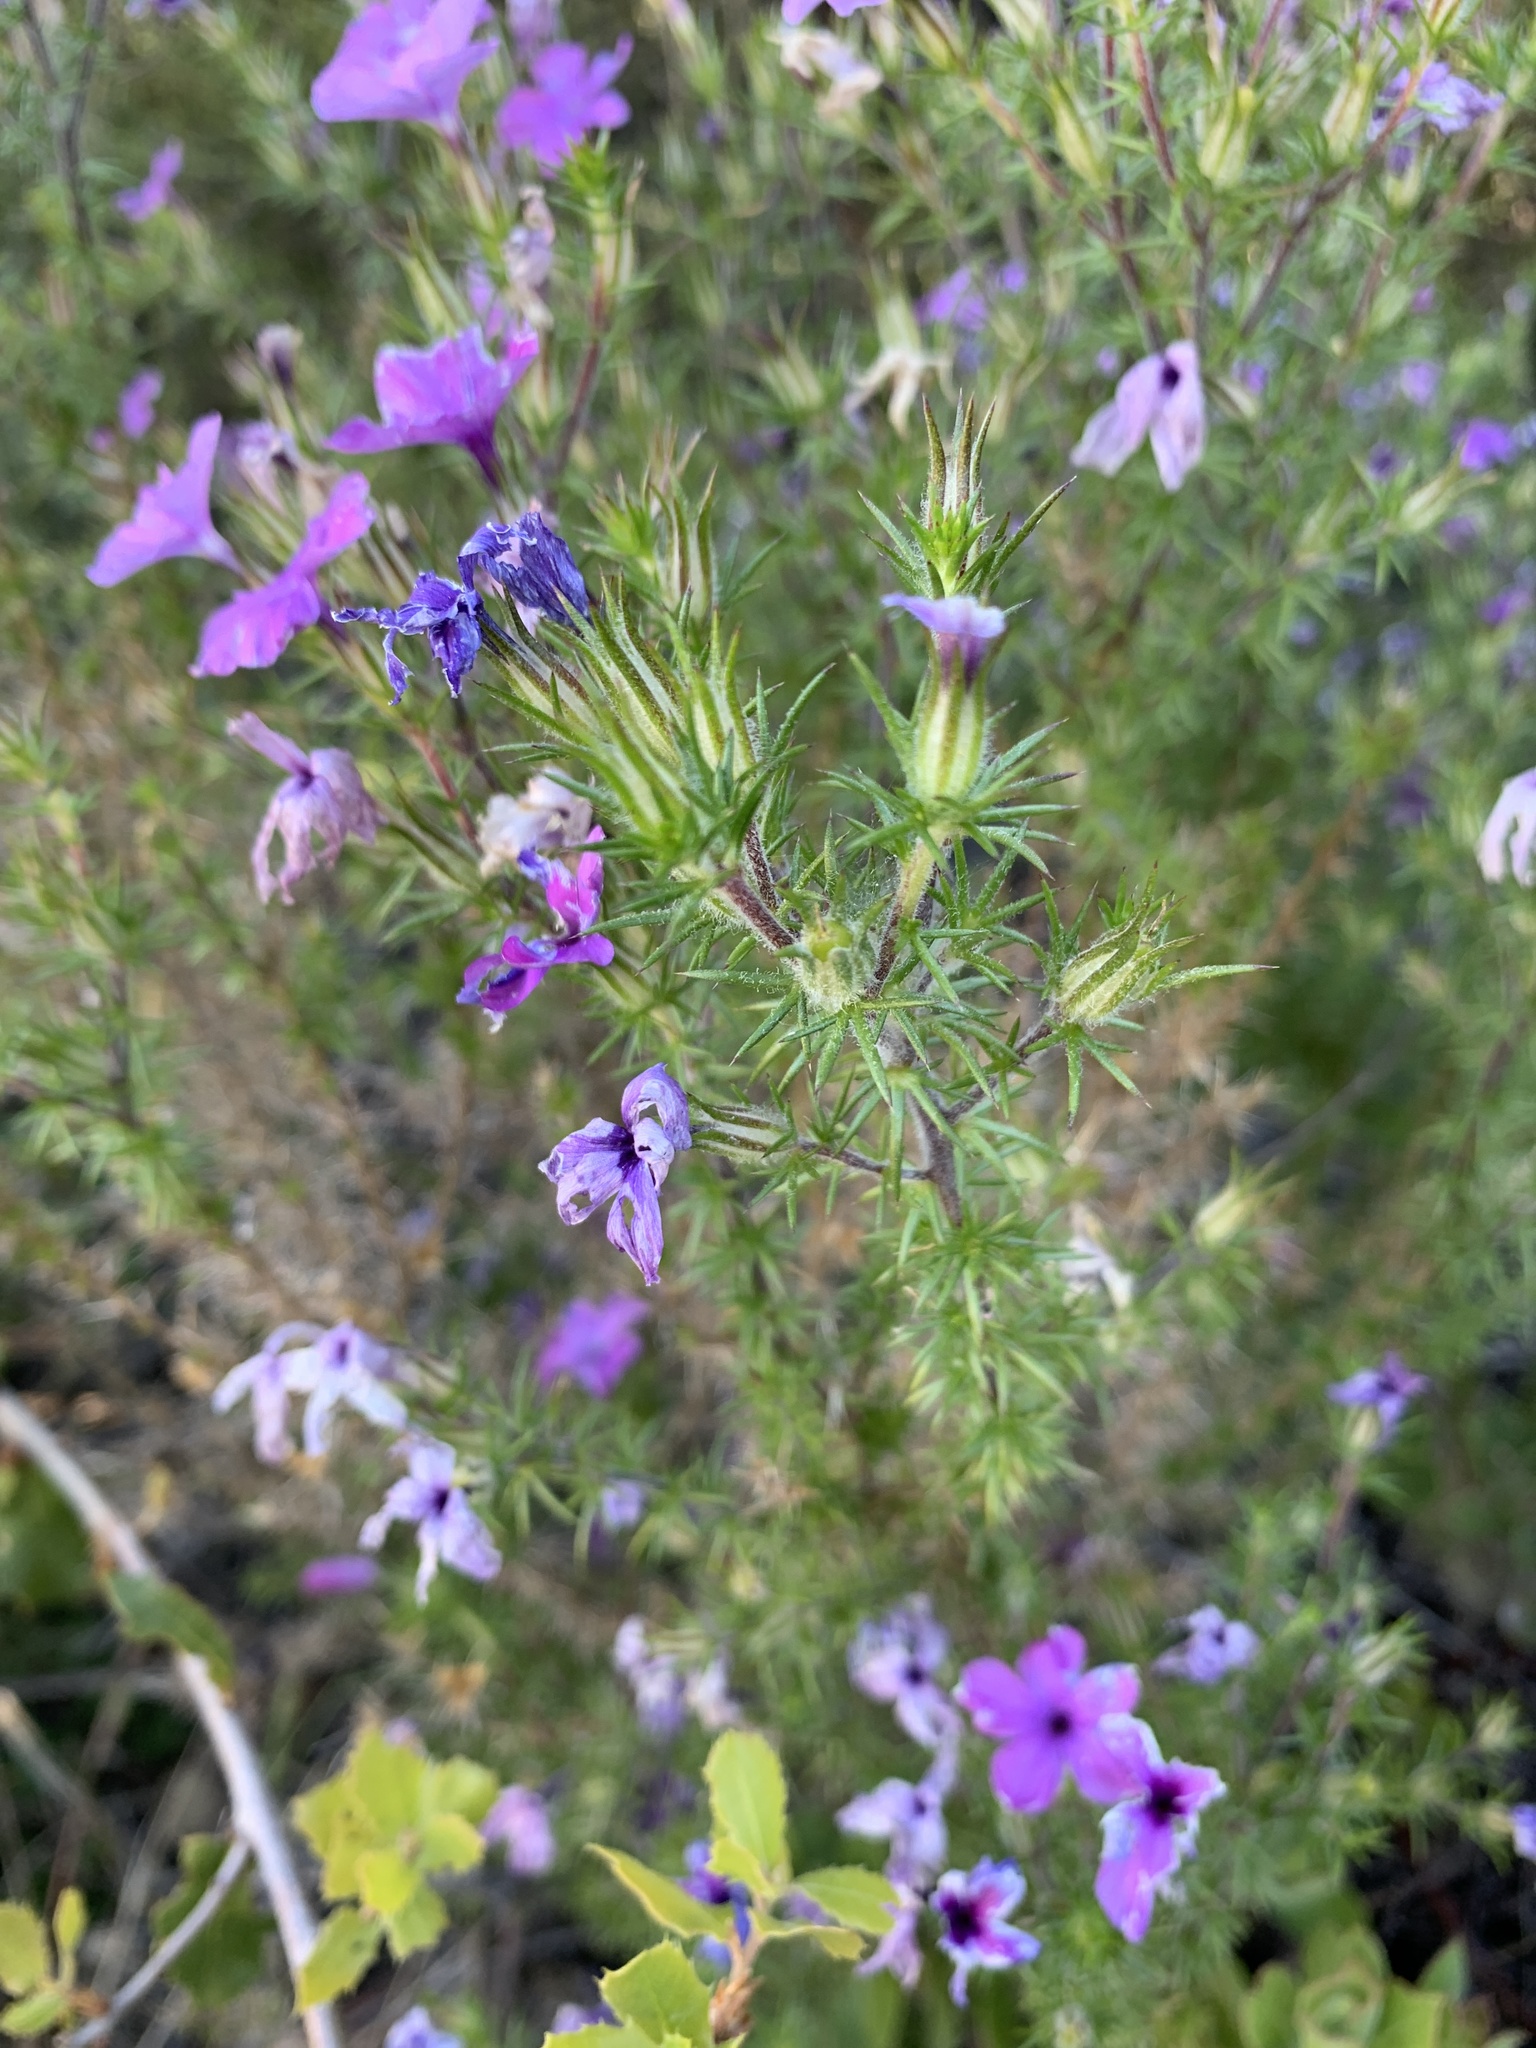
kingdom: Plantae
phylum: Tracheophyta
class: Magnoliopsida
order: Ericales
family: Polemoniaceae
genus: Linanthus
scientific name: Linanthus californicus
